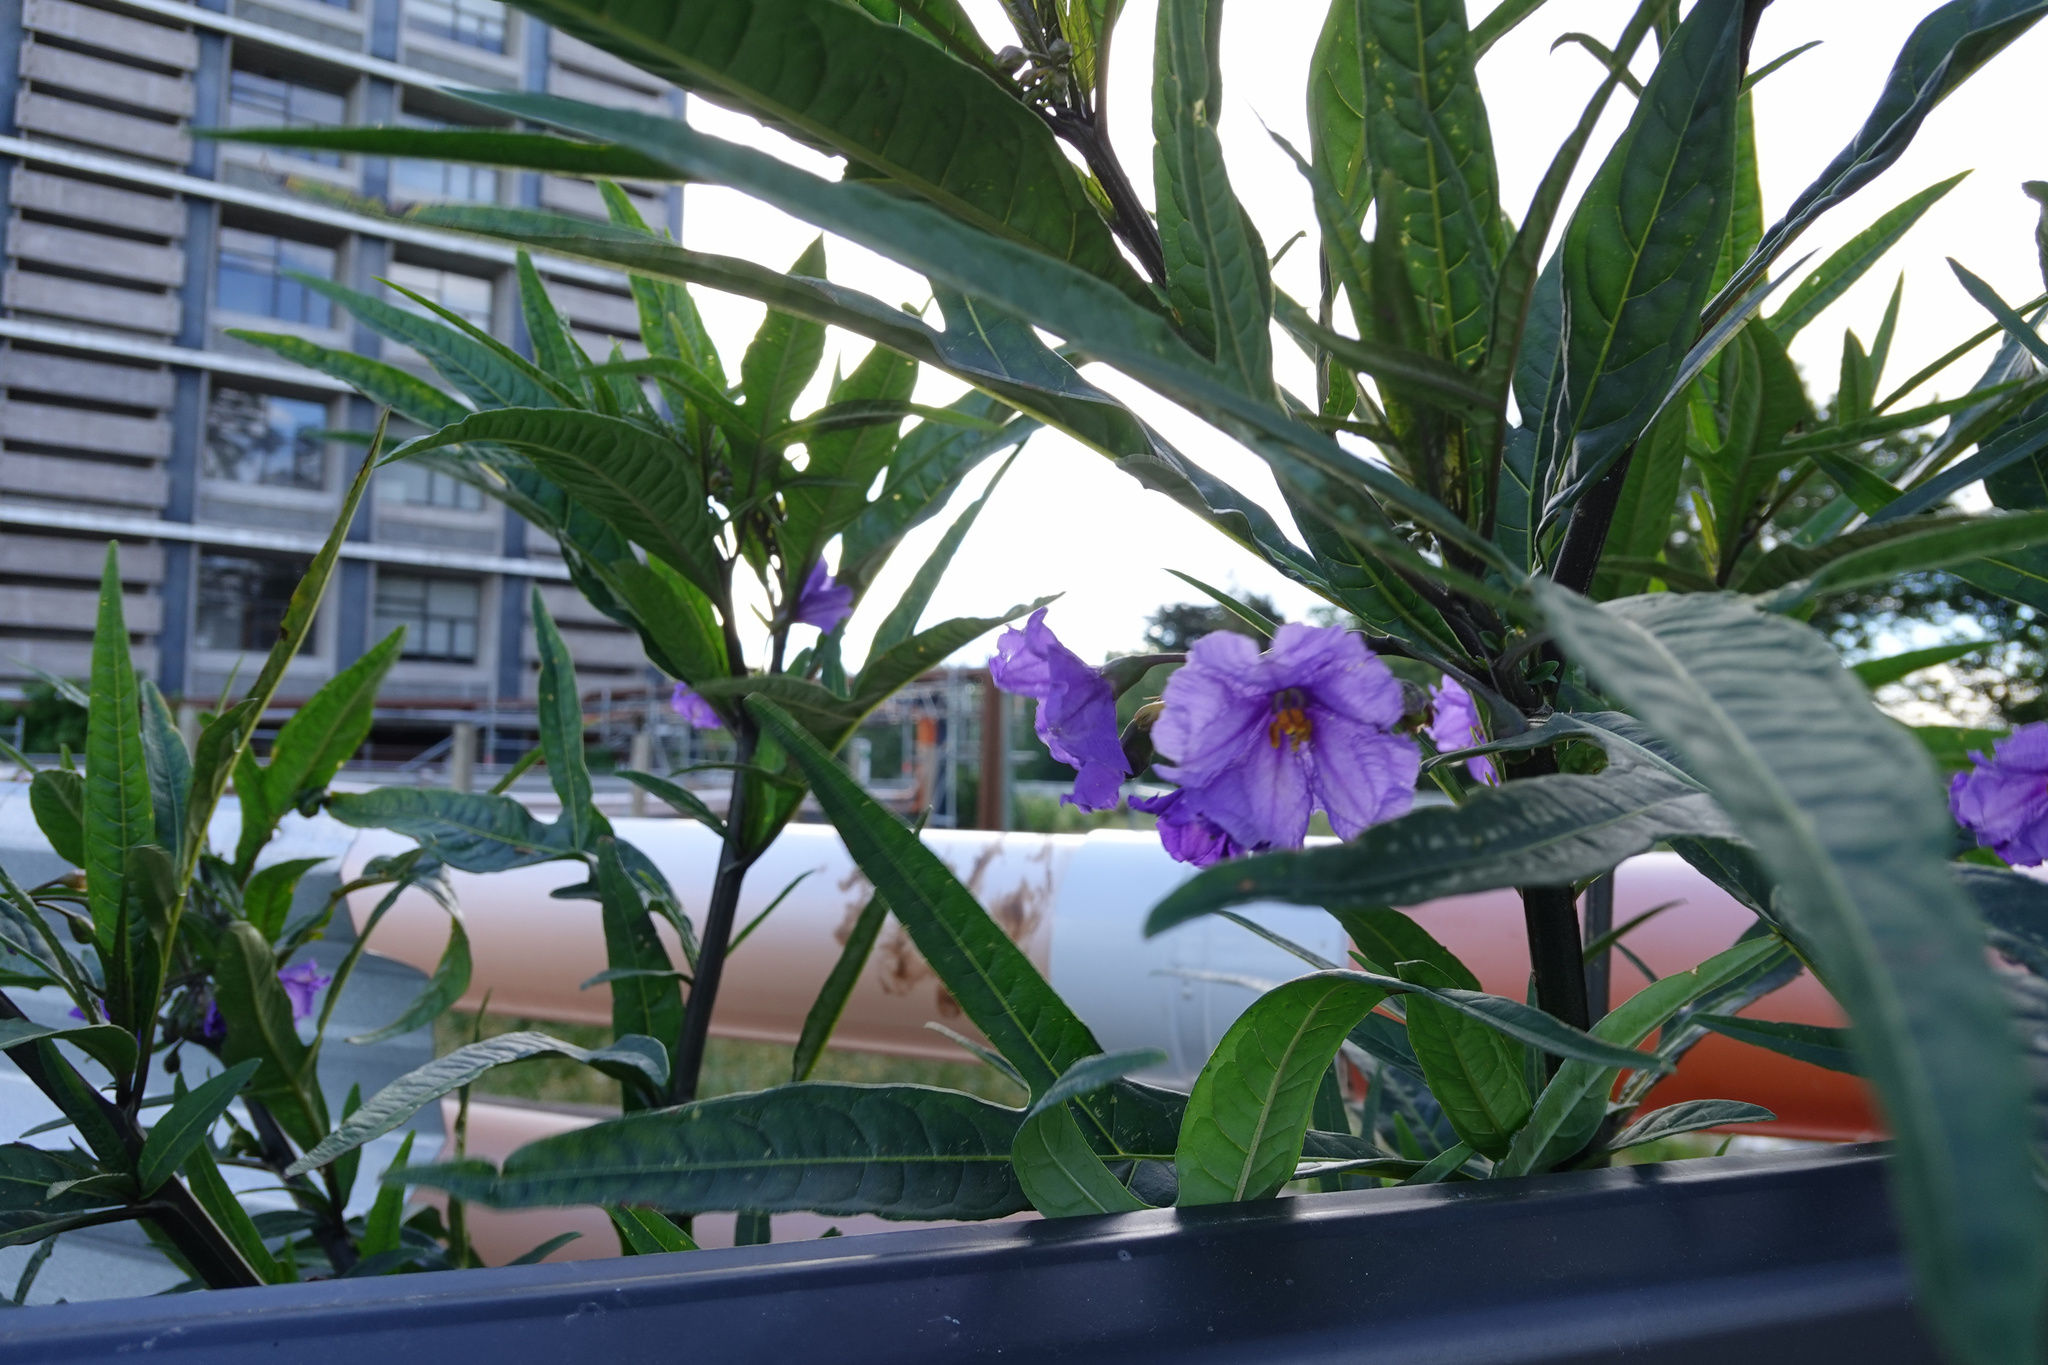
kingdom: Plantae
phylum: Tracheophyta
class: Magnoliopsida
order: Solanales
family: Solanaceae
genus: Solanum
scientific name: Solanum laciniatum
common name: Kangaroo-apple
